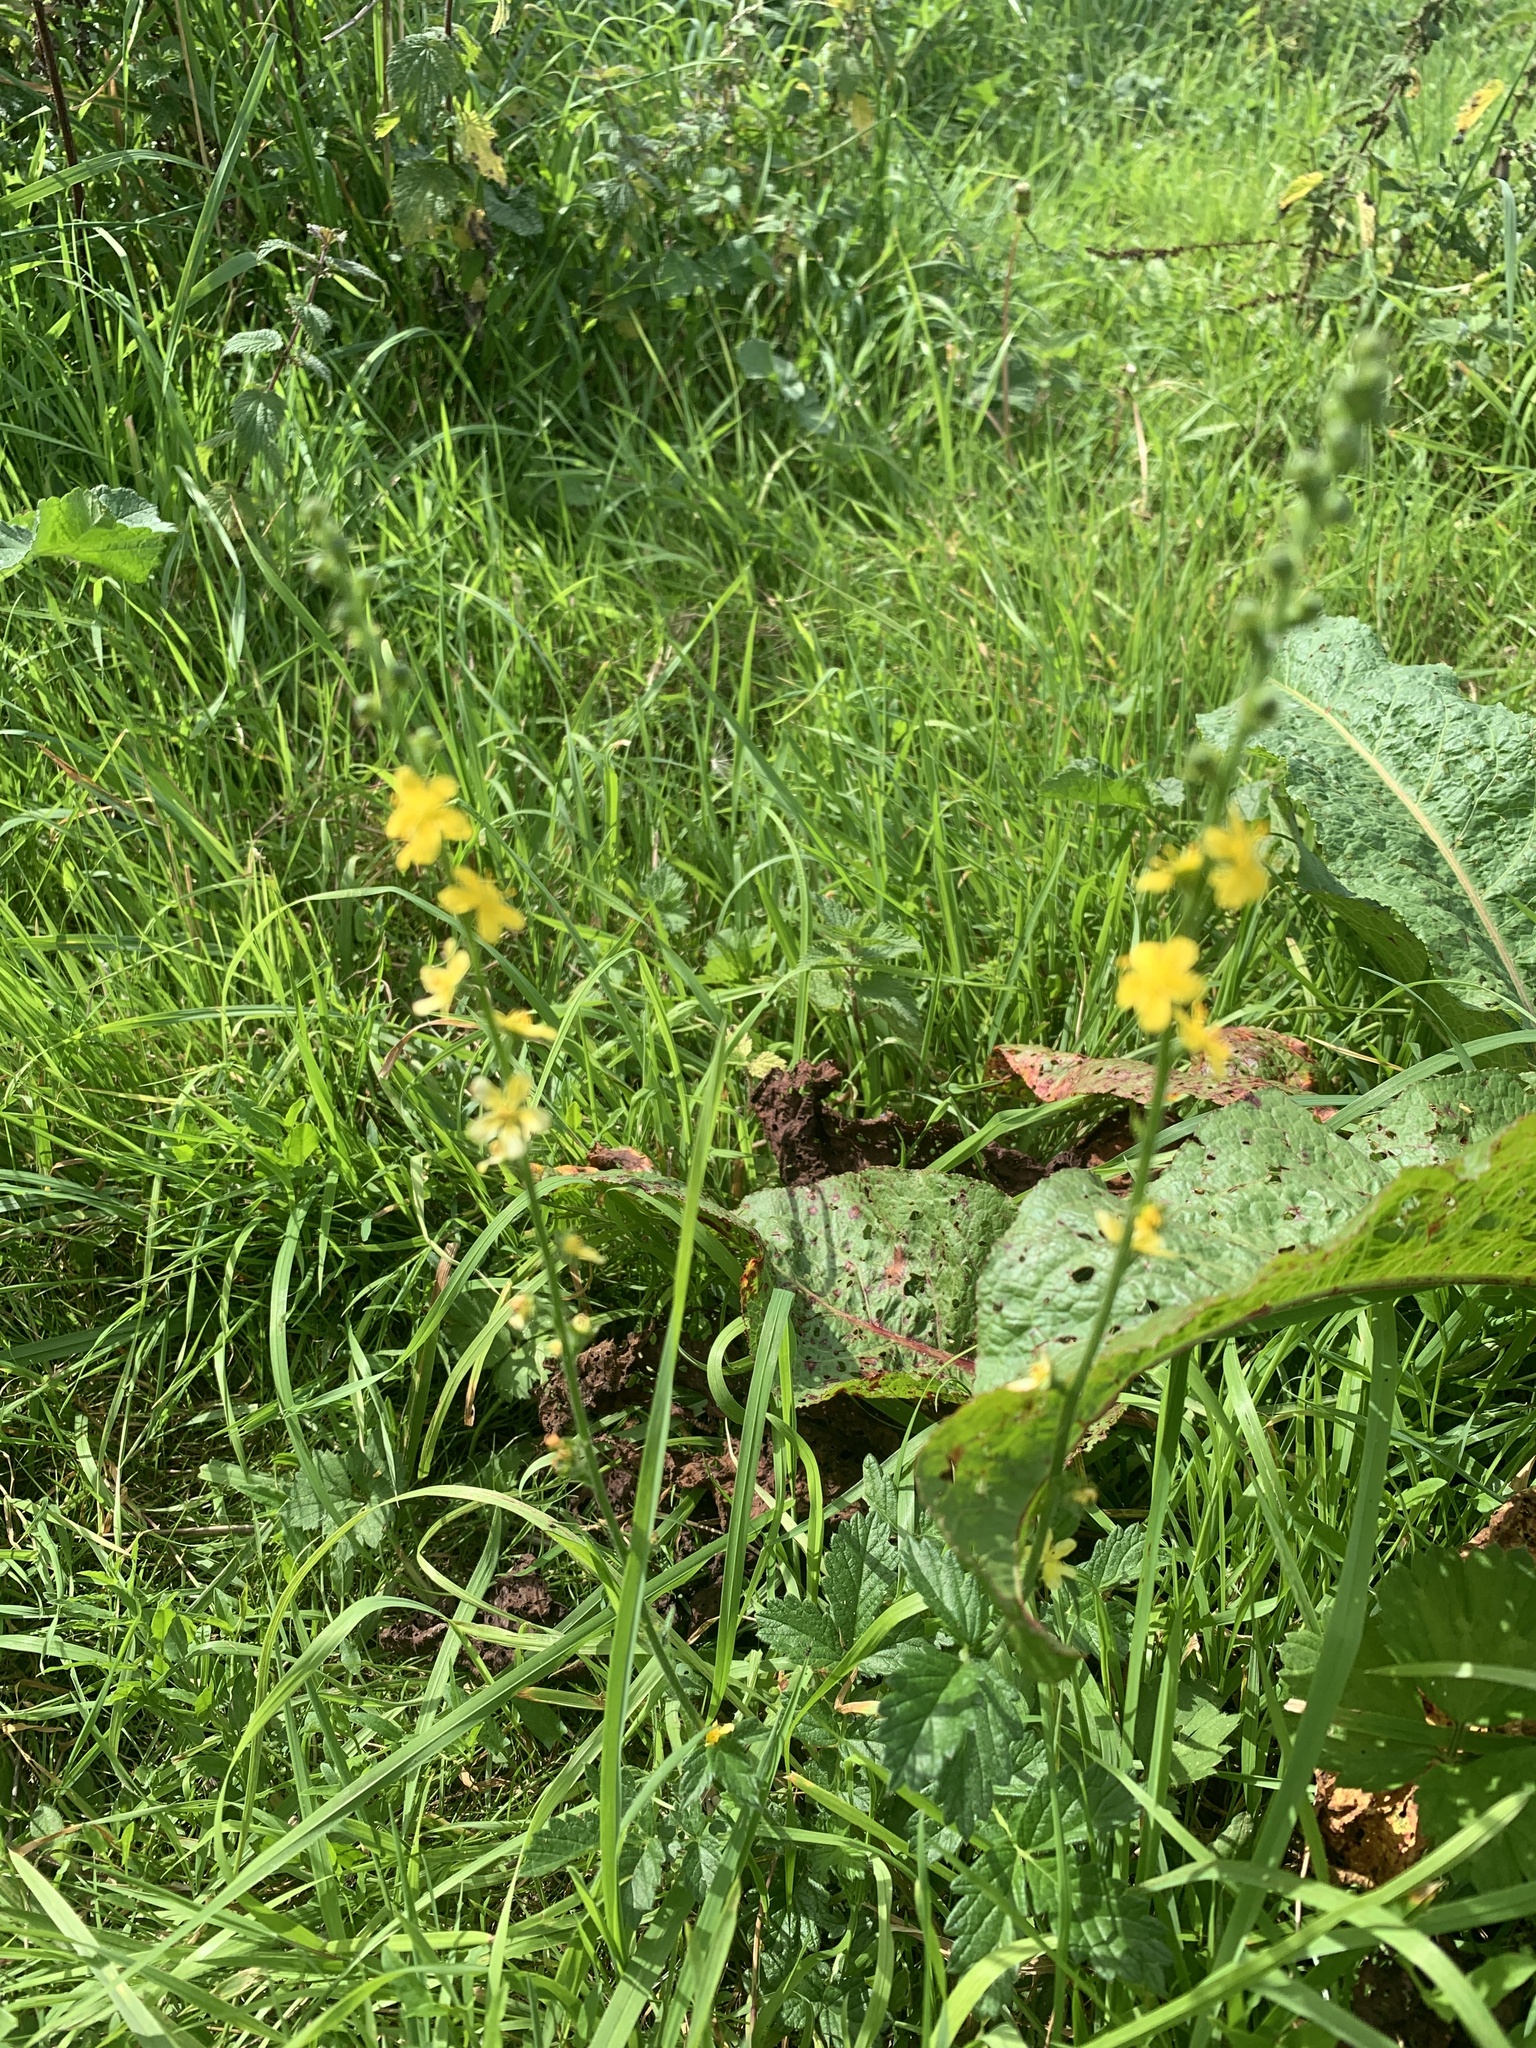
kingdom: Plantae
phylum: Tracheophyta
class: Magnoliopsida
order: Rosales
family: Rosaceae
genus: Agrimonia
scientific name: Agrimonia eupatoria
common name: Agrimony
